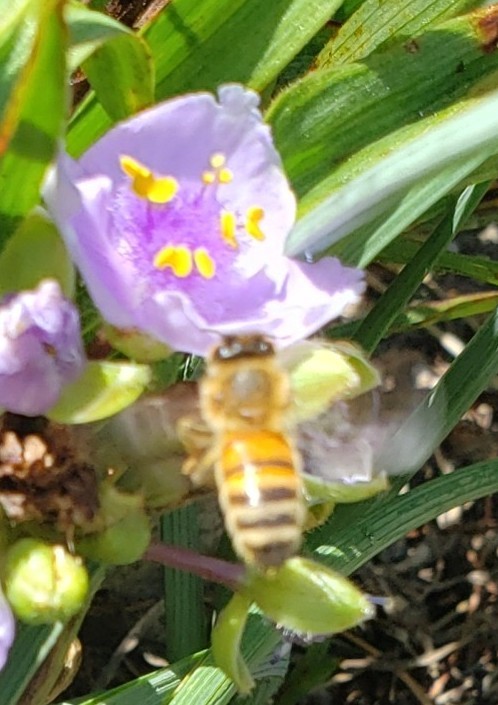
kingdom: Animalia
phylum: Arthropoda
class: Insecta
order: Hymenoptera
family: Apidae
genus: Apis
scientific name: Apis mellifera
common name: Honey bee
